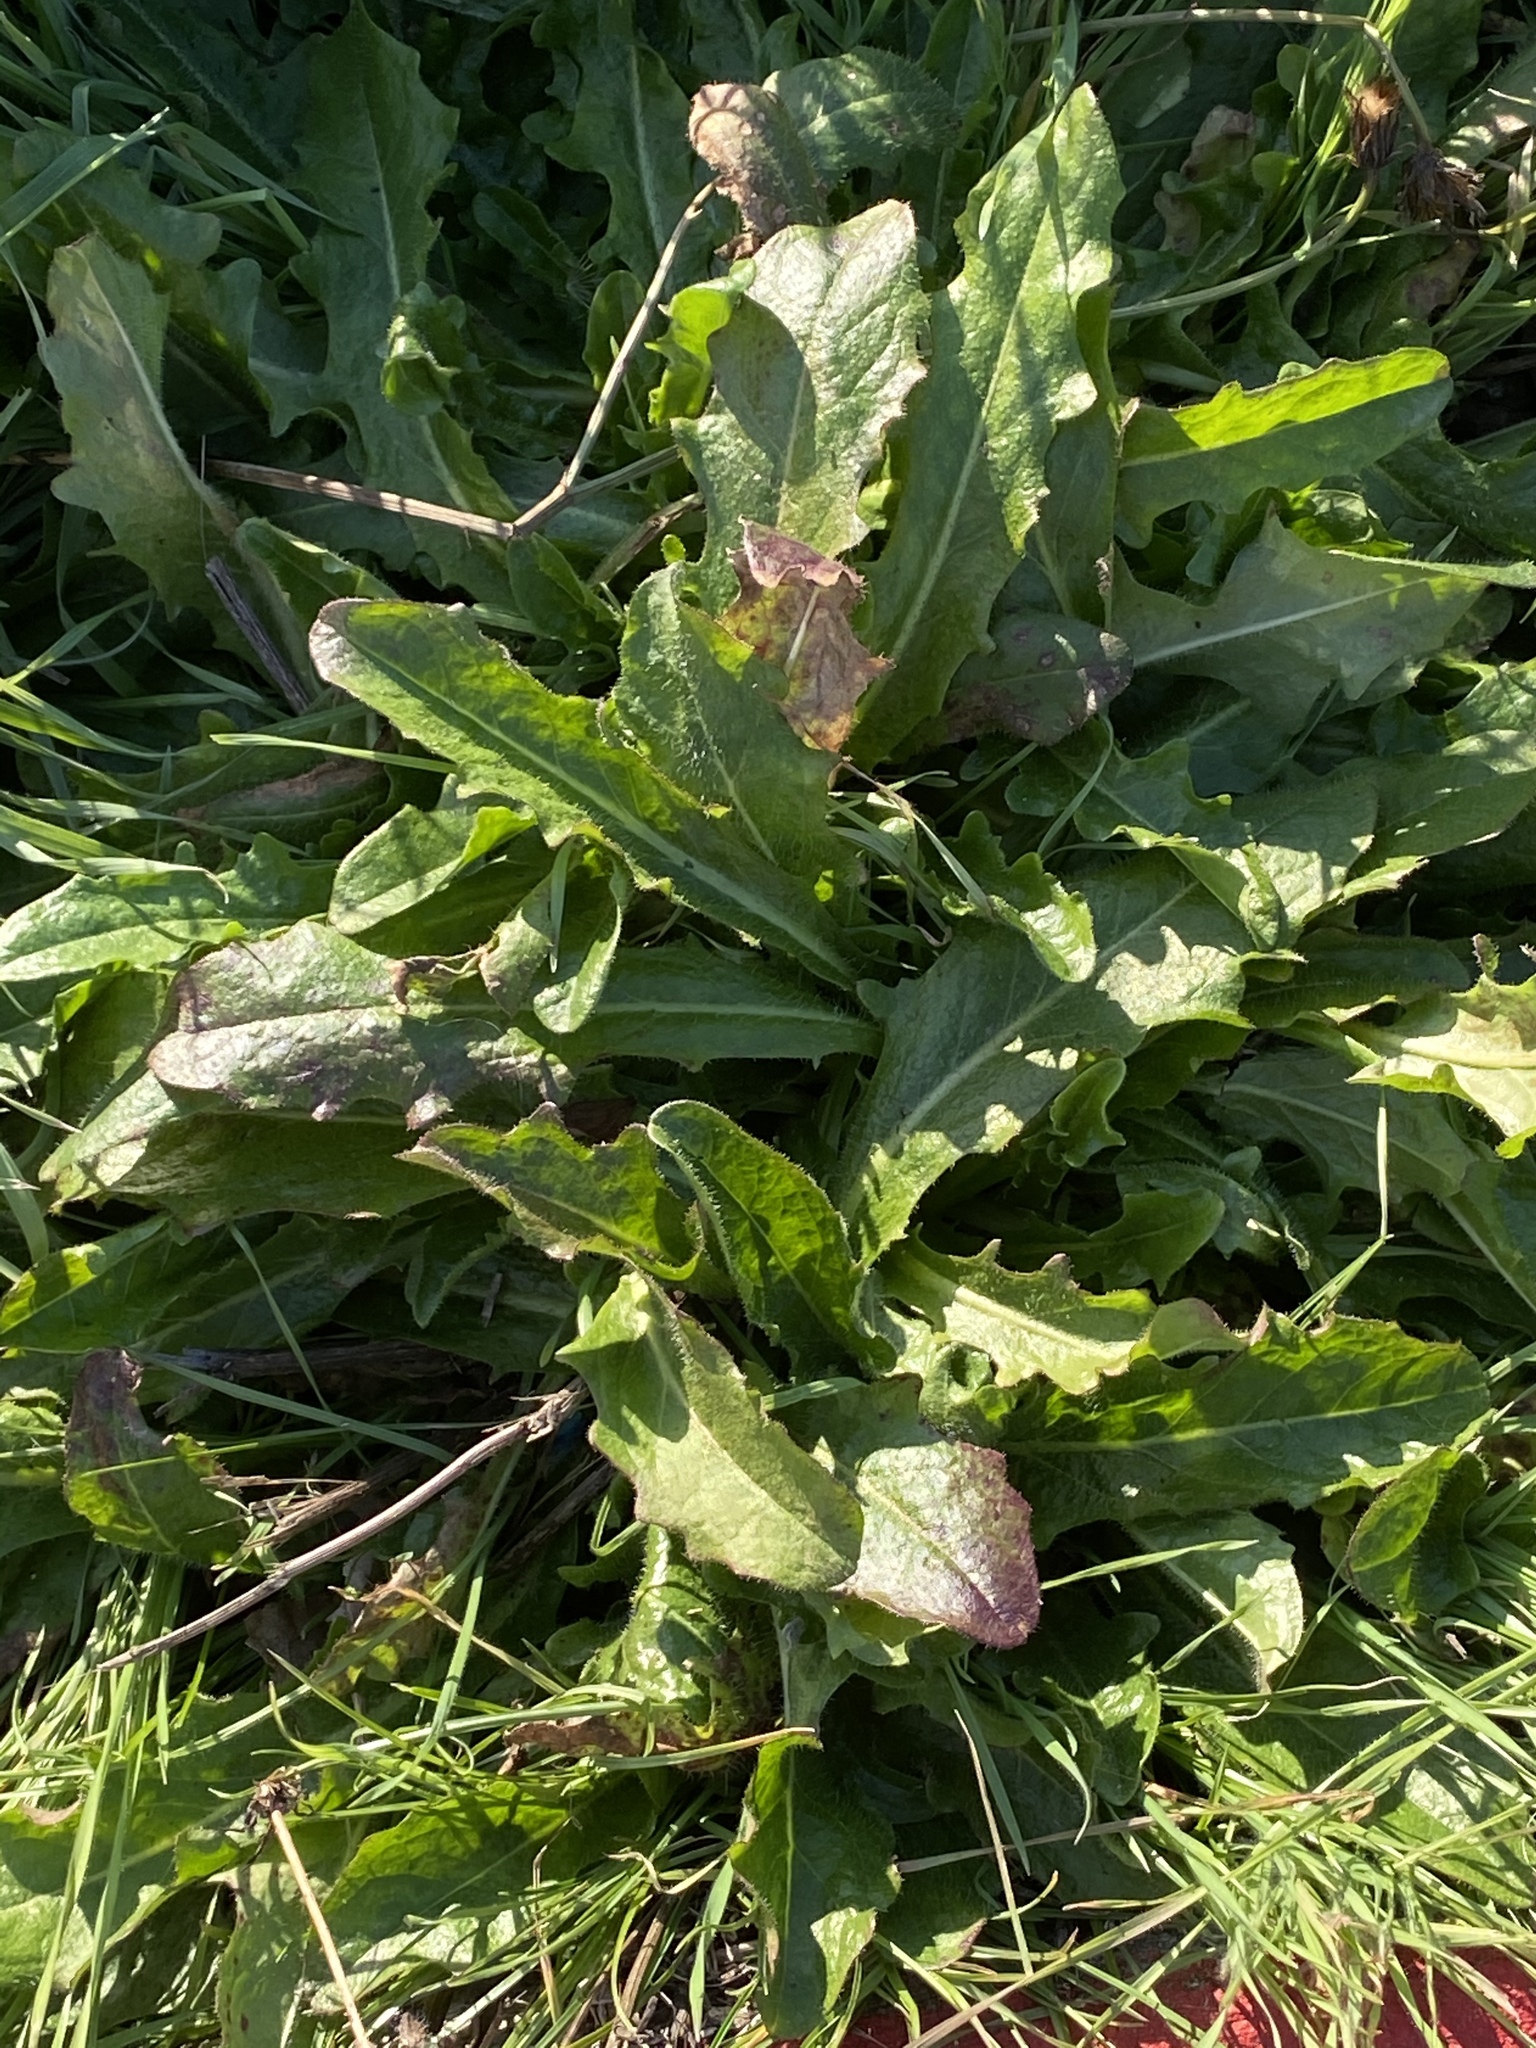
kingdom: Plantae
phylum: Tracheophyta
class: Magnoliopsida
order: Asterales
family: Asteraceae
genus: Hypochaeris
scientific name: Hypochaeris radicata
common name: Flatweed
